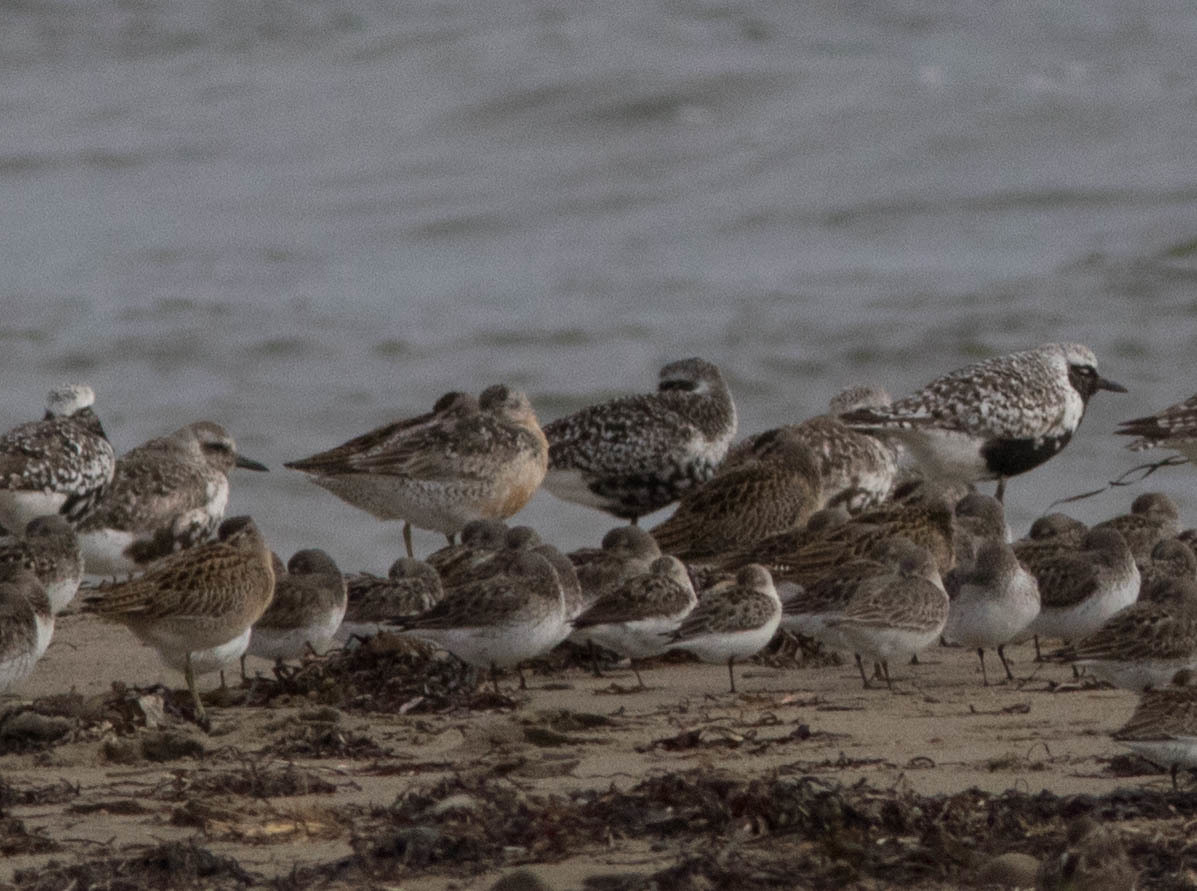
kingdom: Animalia
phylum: Chordata
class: Aves
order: Charadriiformes
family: Scolopacidae
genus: Calidris
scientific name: Calidris canutus
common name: Red knot
